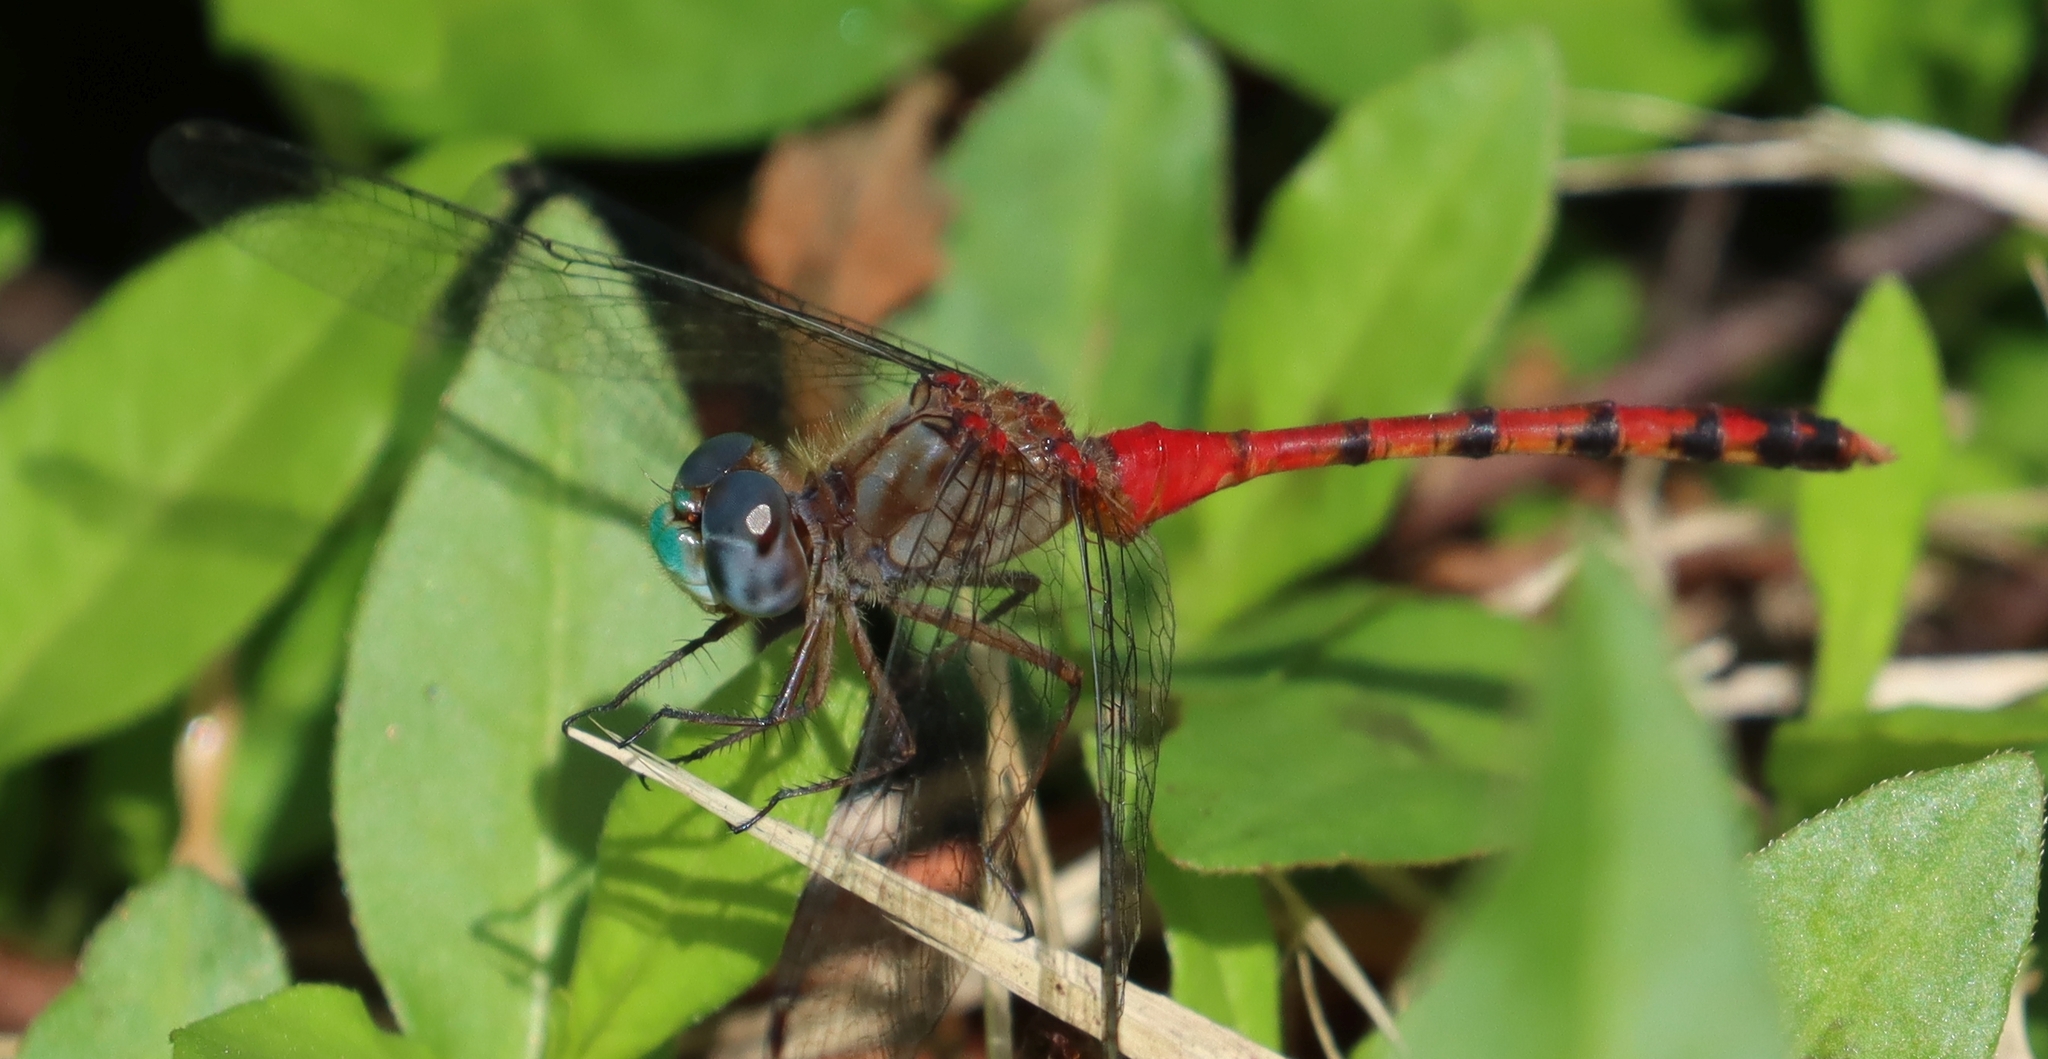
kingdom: Animalia
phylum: Arthropoda
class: Insecta
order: Odonata
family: Libellulidae
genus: Sympetrum
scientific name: Sympetrum ambiguum
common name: Blue-faced meadowhawk
